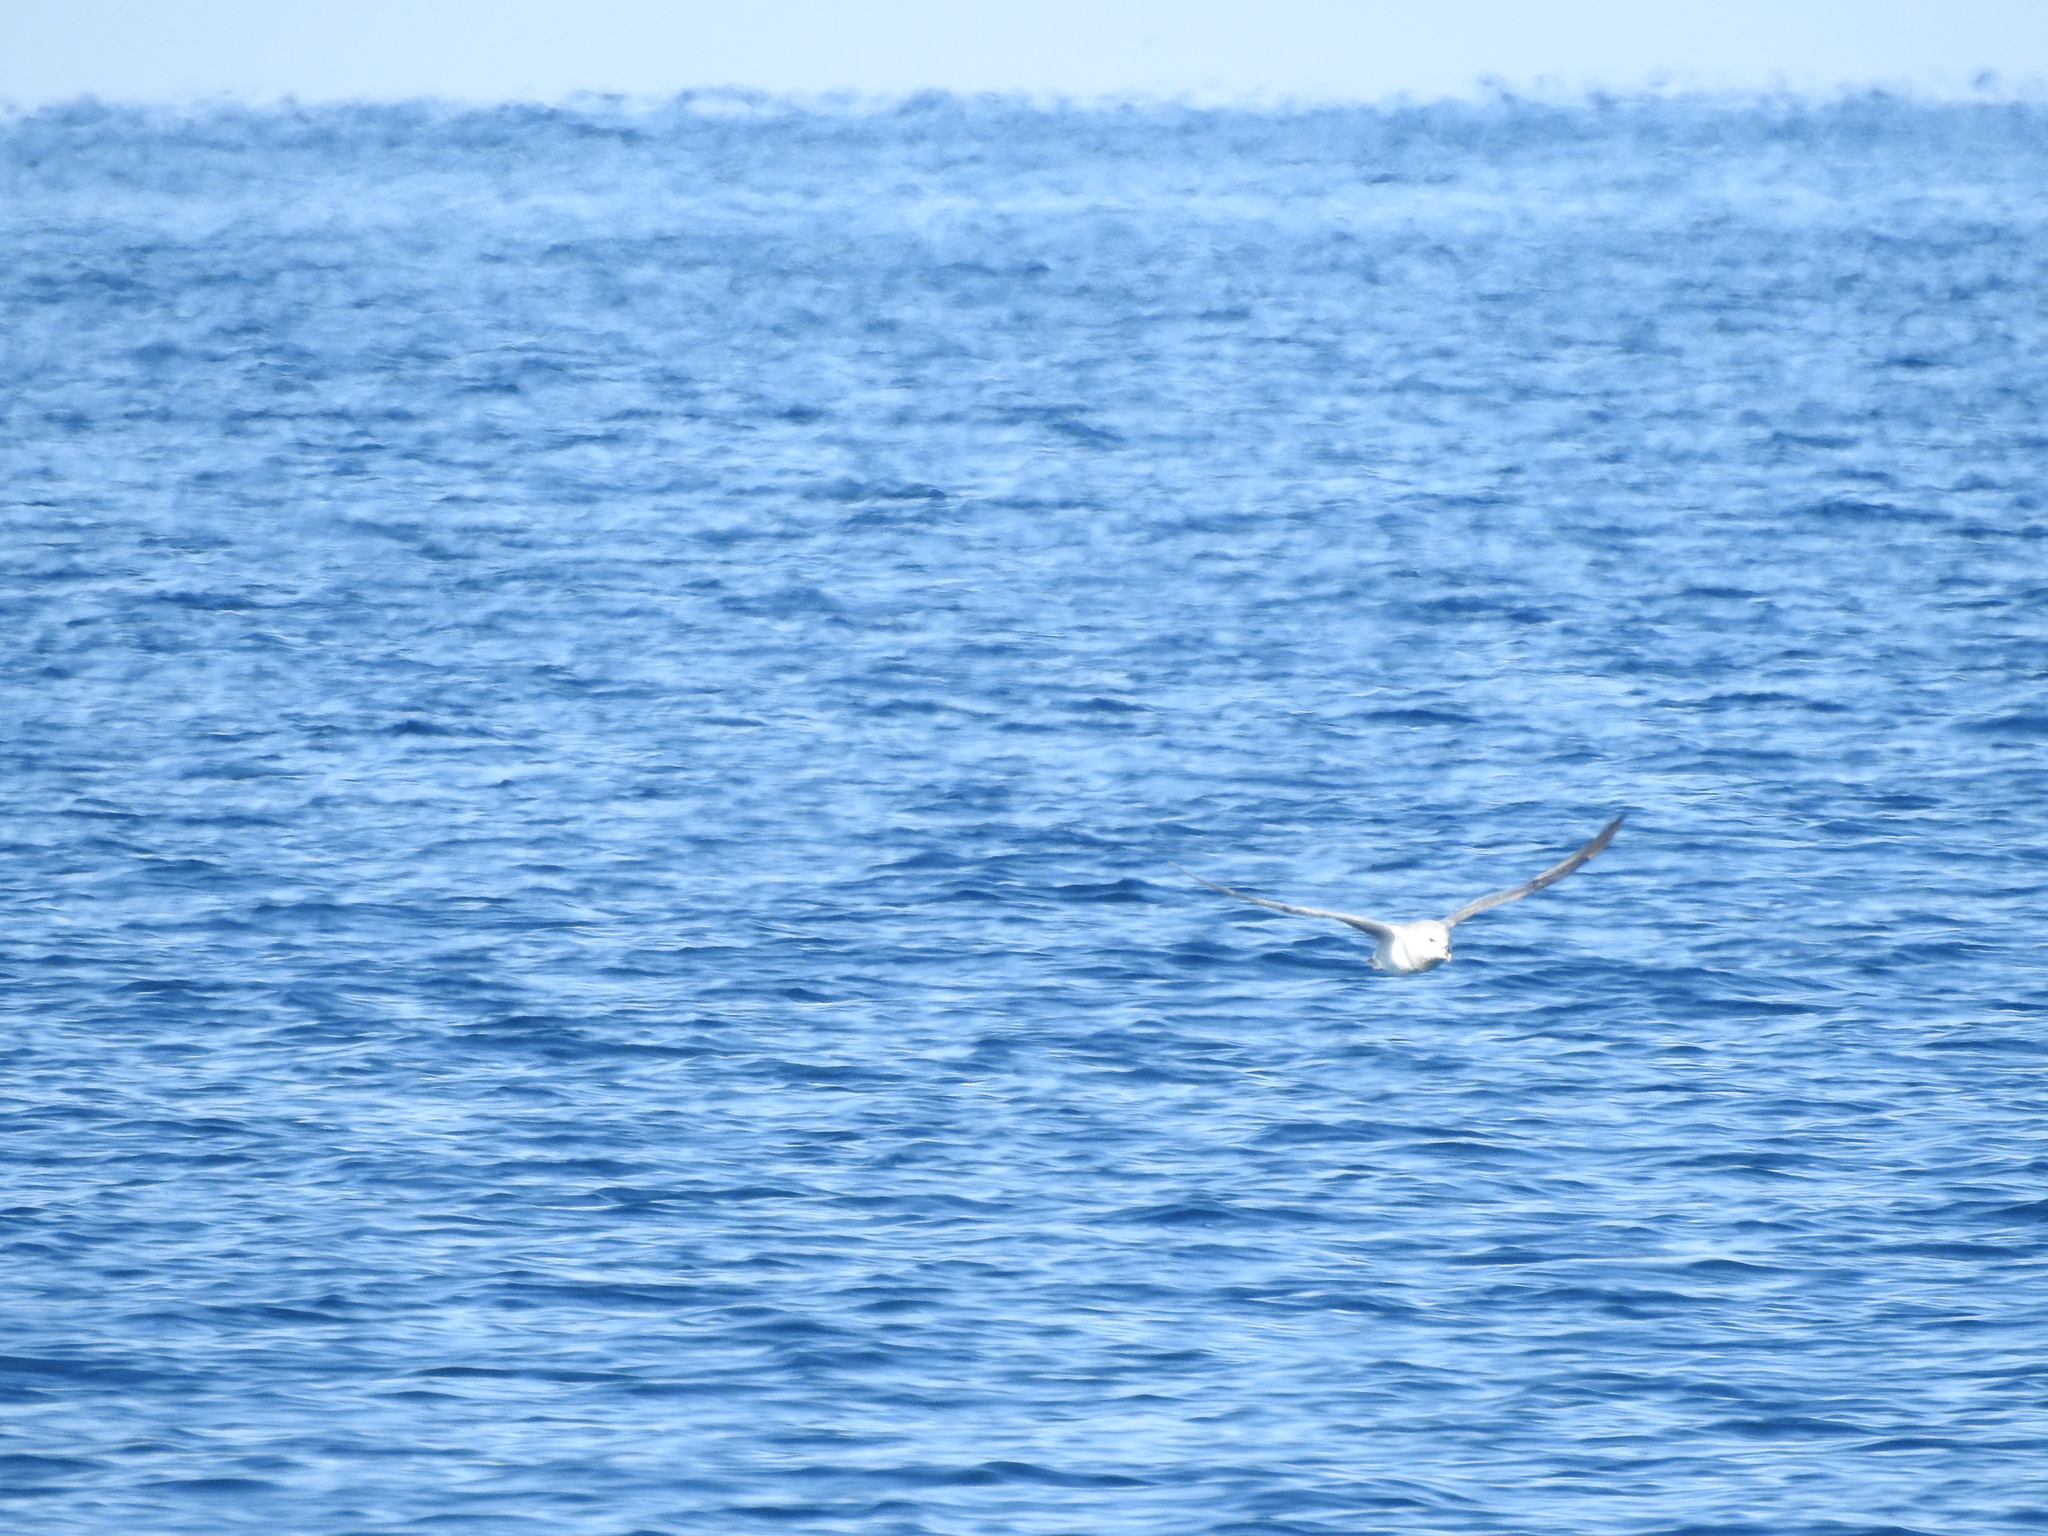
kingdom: Animalia
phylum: Chordata
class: Aves
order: Procellariiformes
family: Procellariidae
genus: Fulmarus
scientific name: Fulmarus glacialis
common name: Northern fulmar
